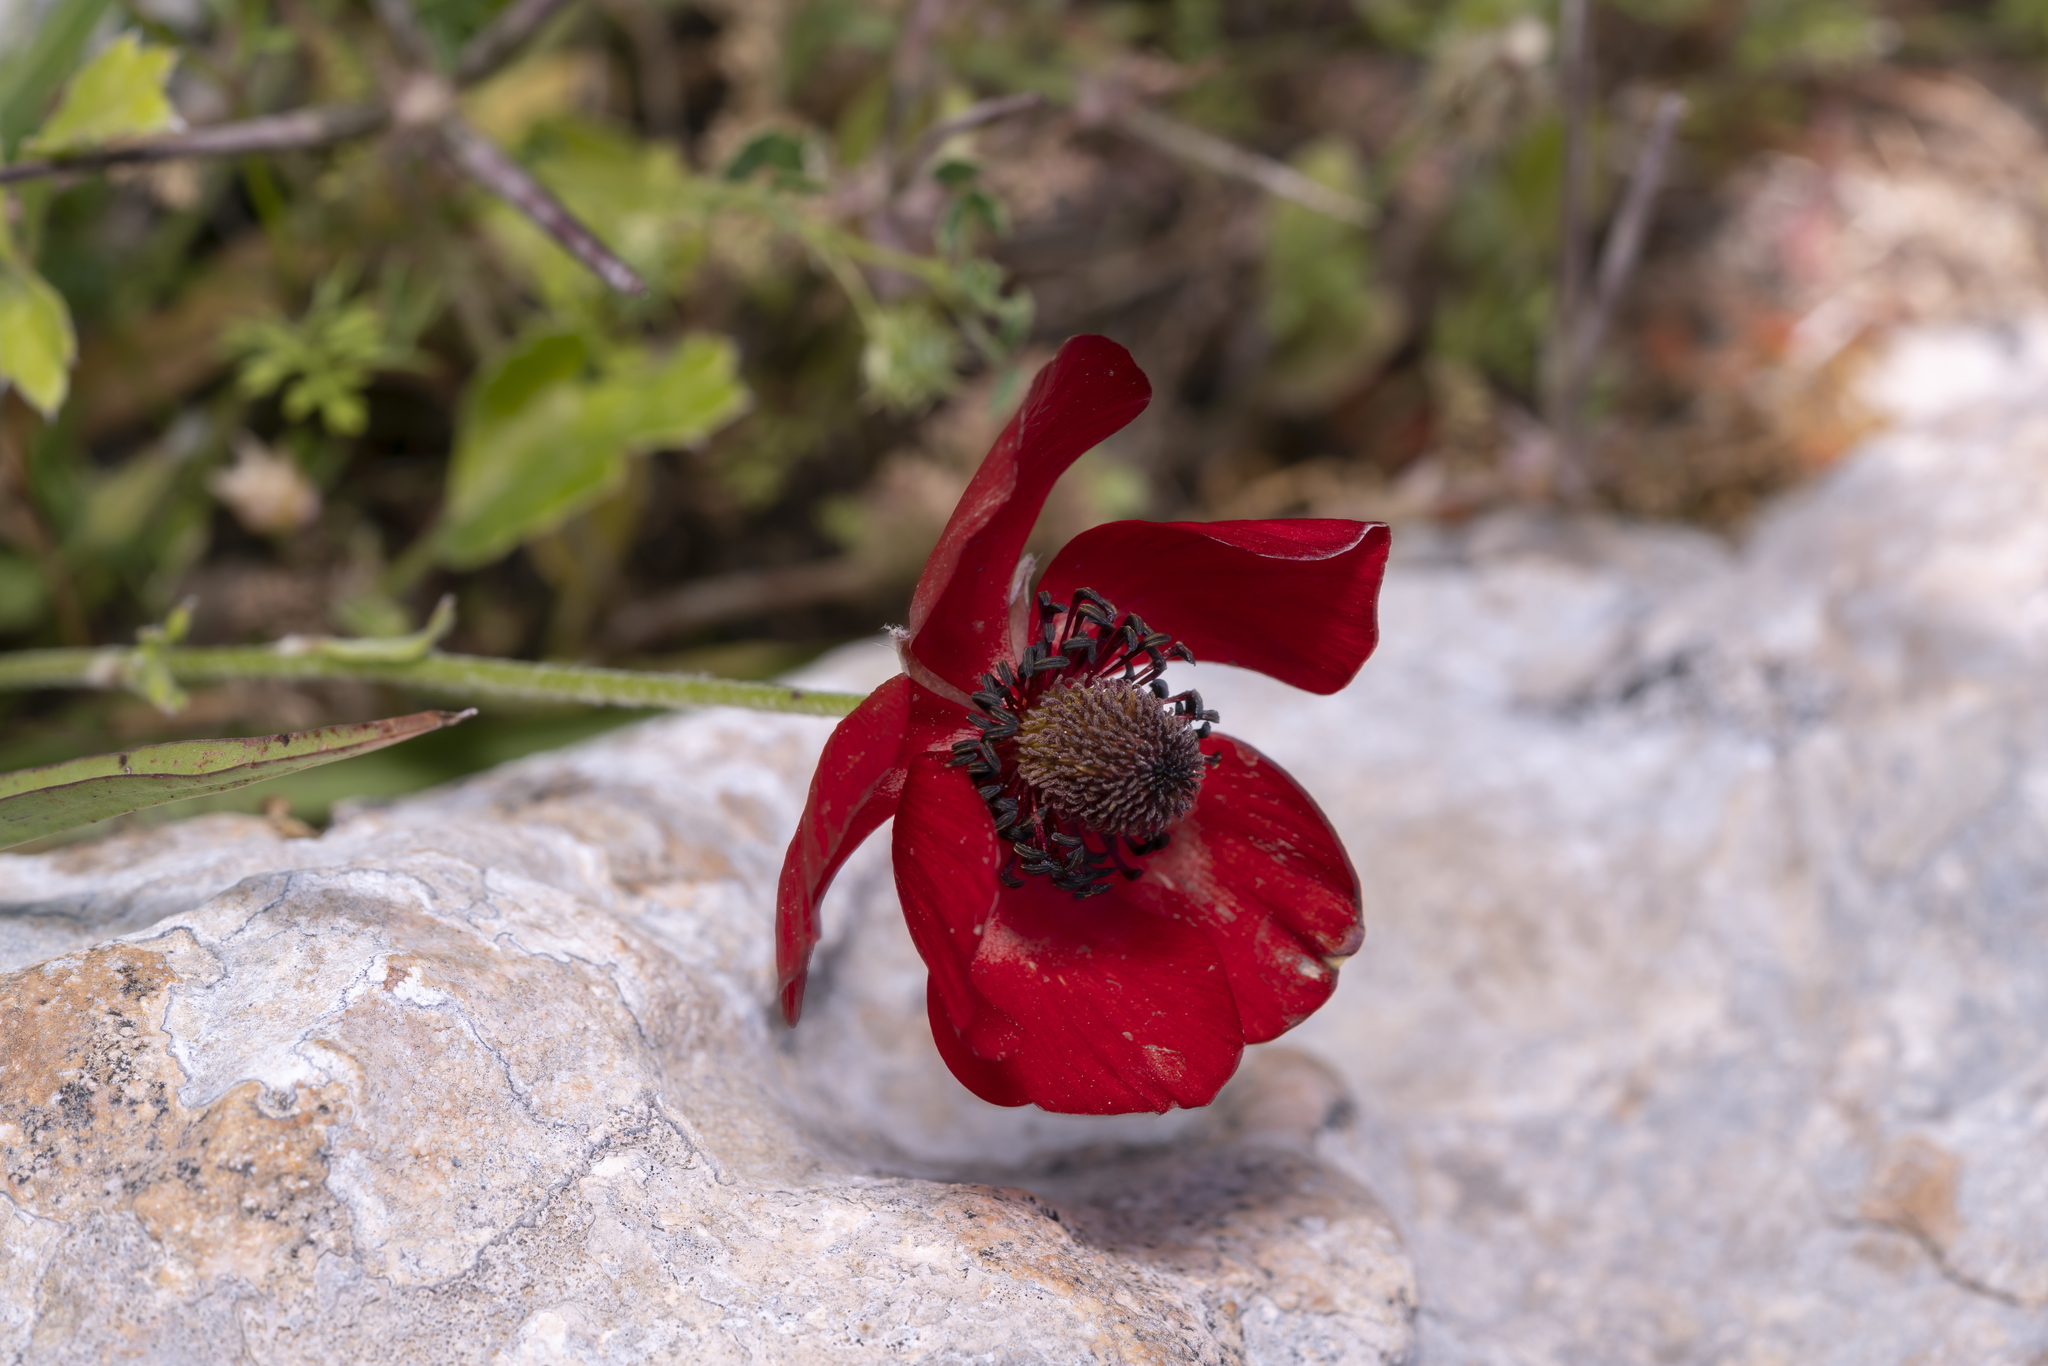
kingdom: Plantae
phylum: Tracheophyta
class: Magnoliopsida
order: Ranunculales
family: Ranunculaceae
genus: Ranunculus
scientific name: Ranunculus asiaticus
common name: Persian buttercup
